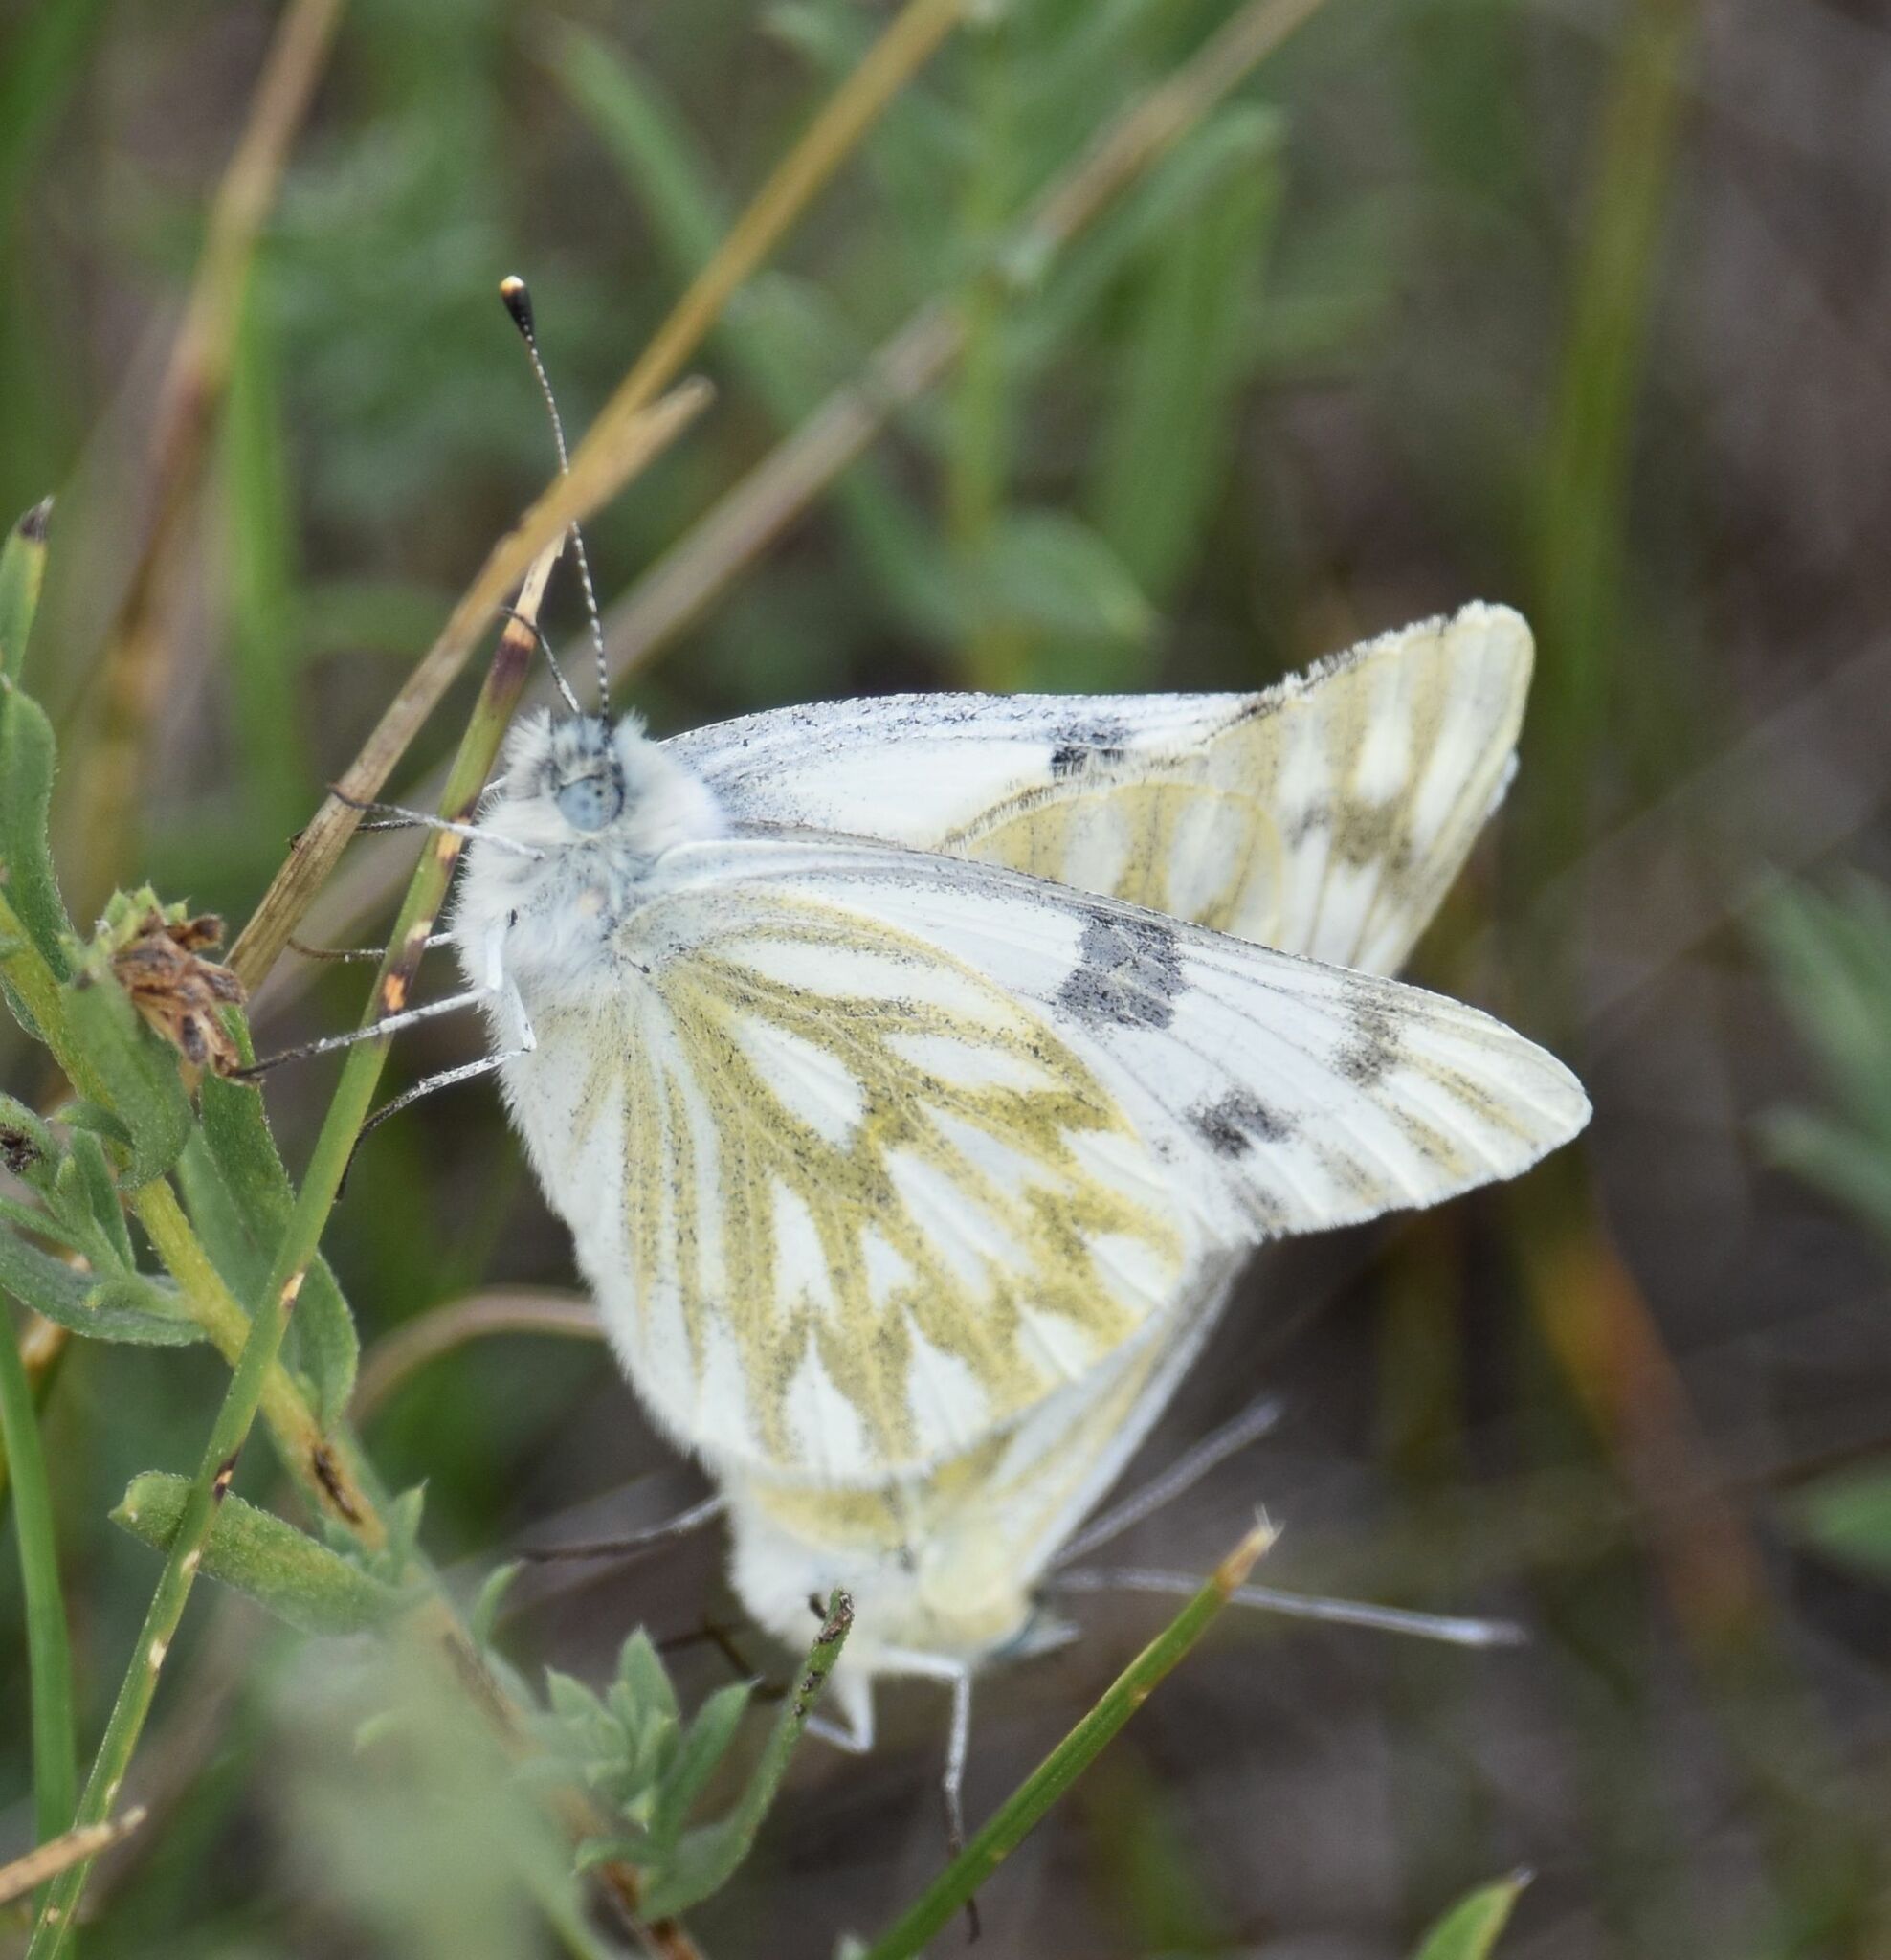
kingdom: Animalia
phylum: Arthropoda
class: Insecta
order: Lepidoptera
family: Pieridae
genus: Pontia
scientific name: Pontia occidentalis
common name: Western white
